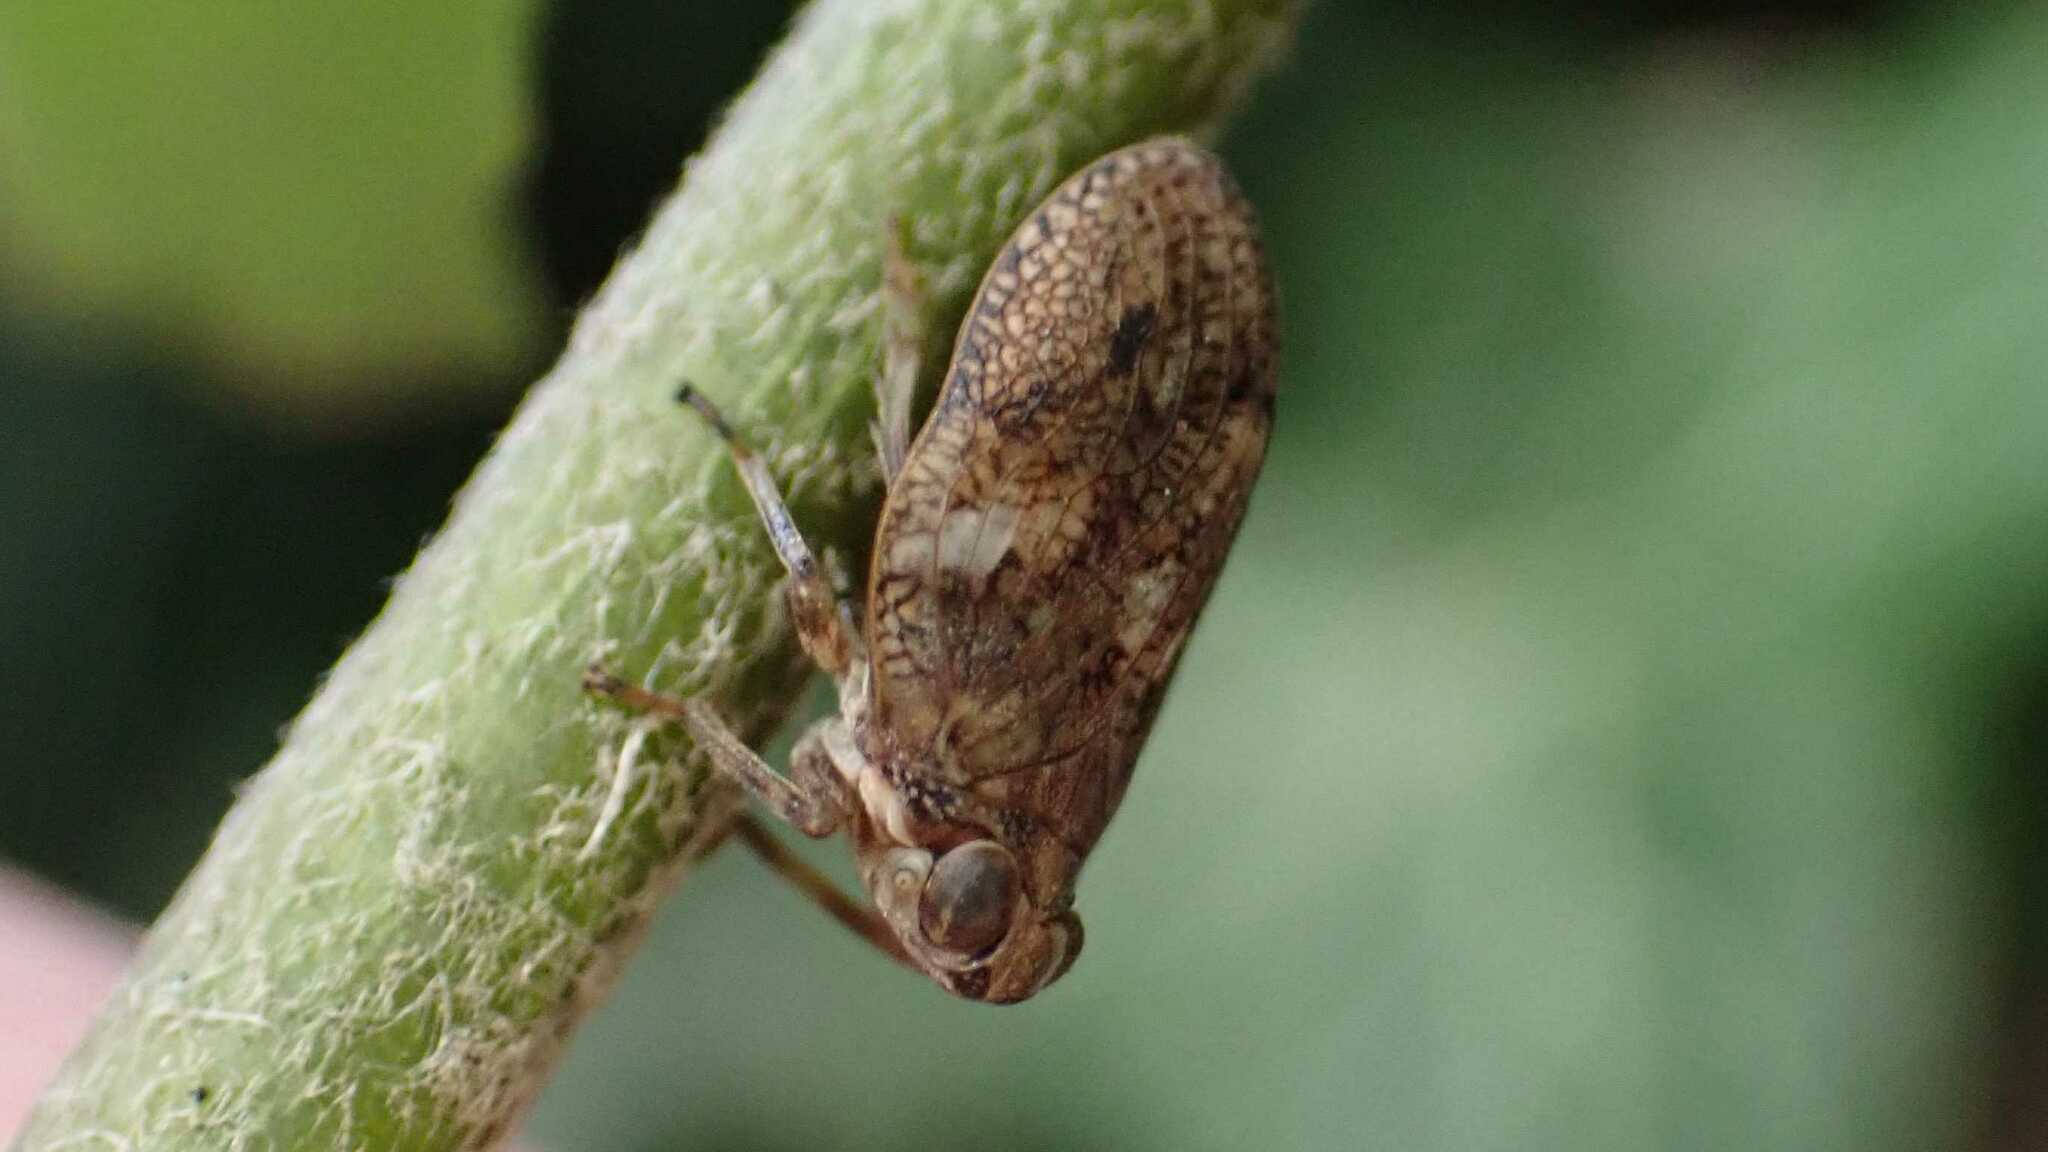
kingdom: Animalia
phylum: Arthropoda
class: Insecta
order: Hemiptera
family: Issidae
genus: Issus
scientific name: Issus coleoptratus
